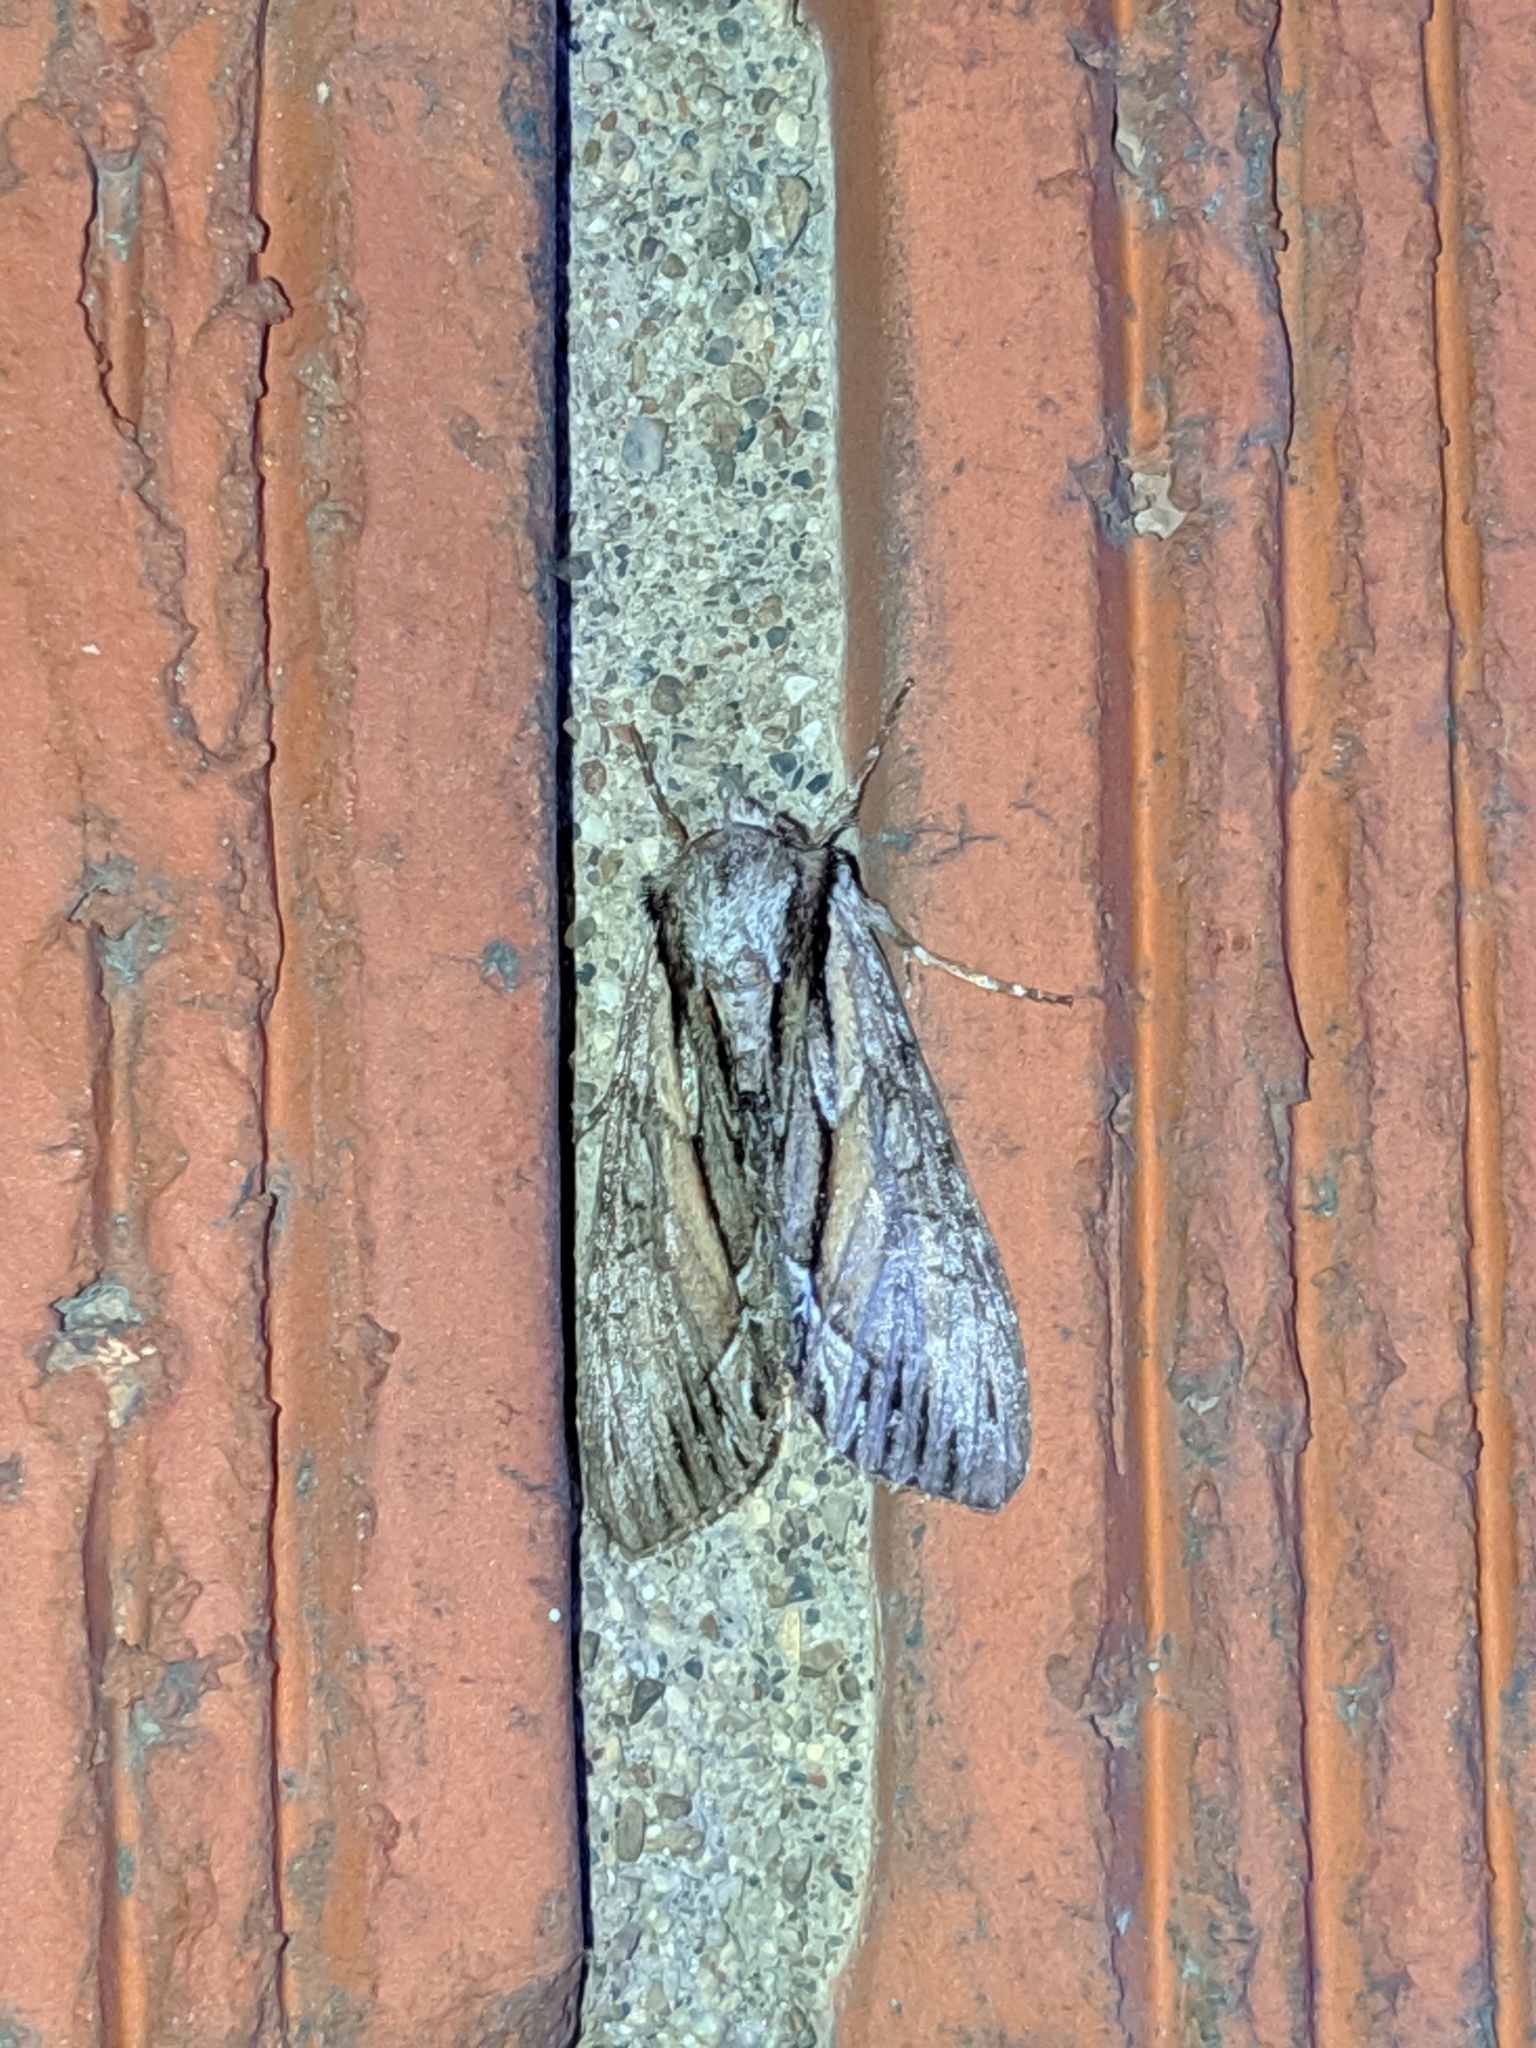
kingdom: Animalia
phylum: Arthropoda
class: Insecta
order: Lepidoptera
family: Noctuidae
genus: Hyppa
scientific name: Hyppa xylinoides
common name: Common hyppa moth
